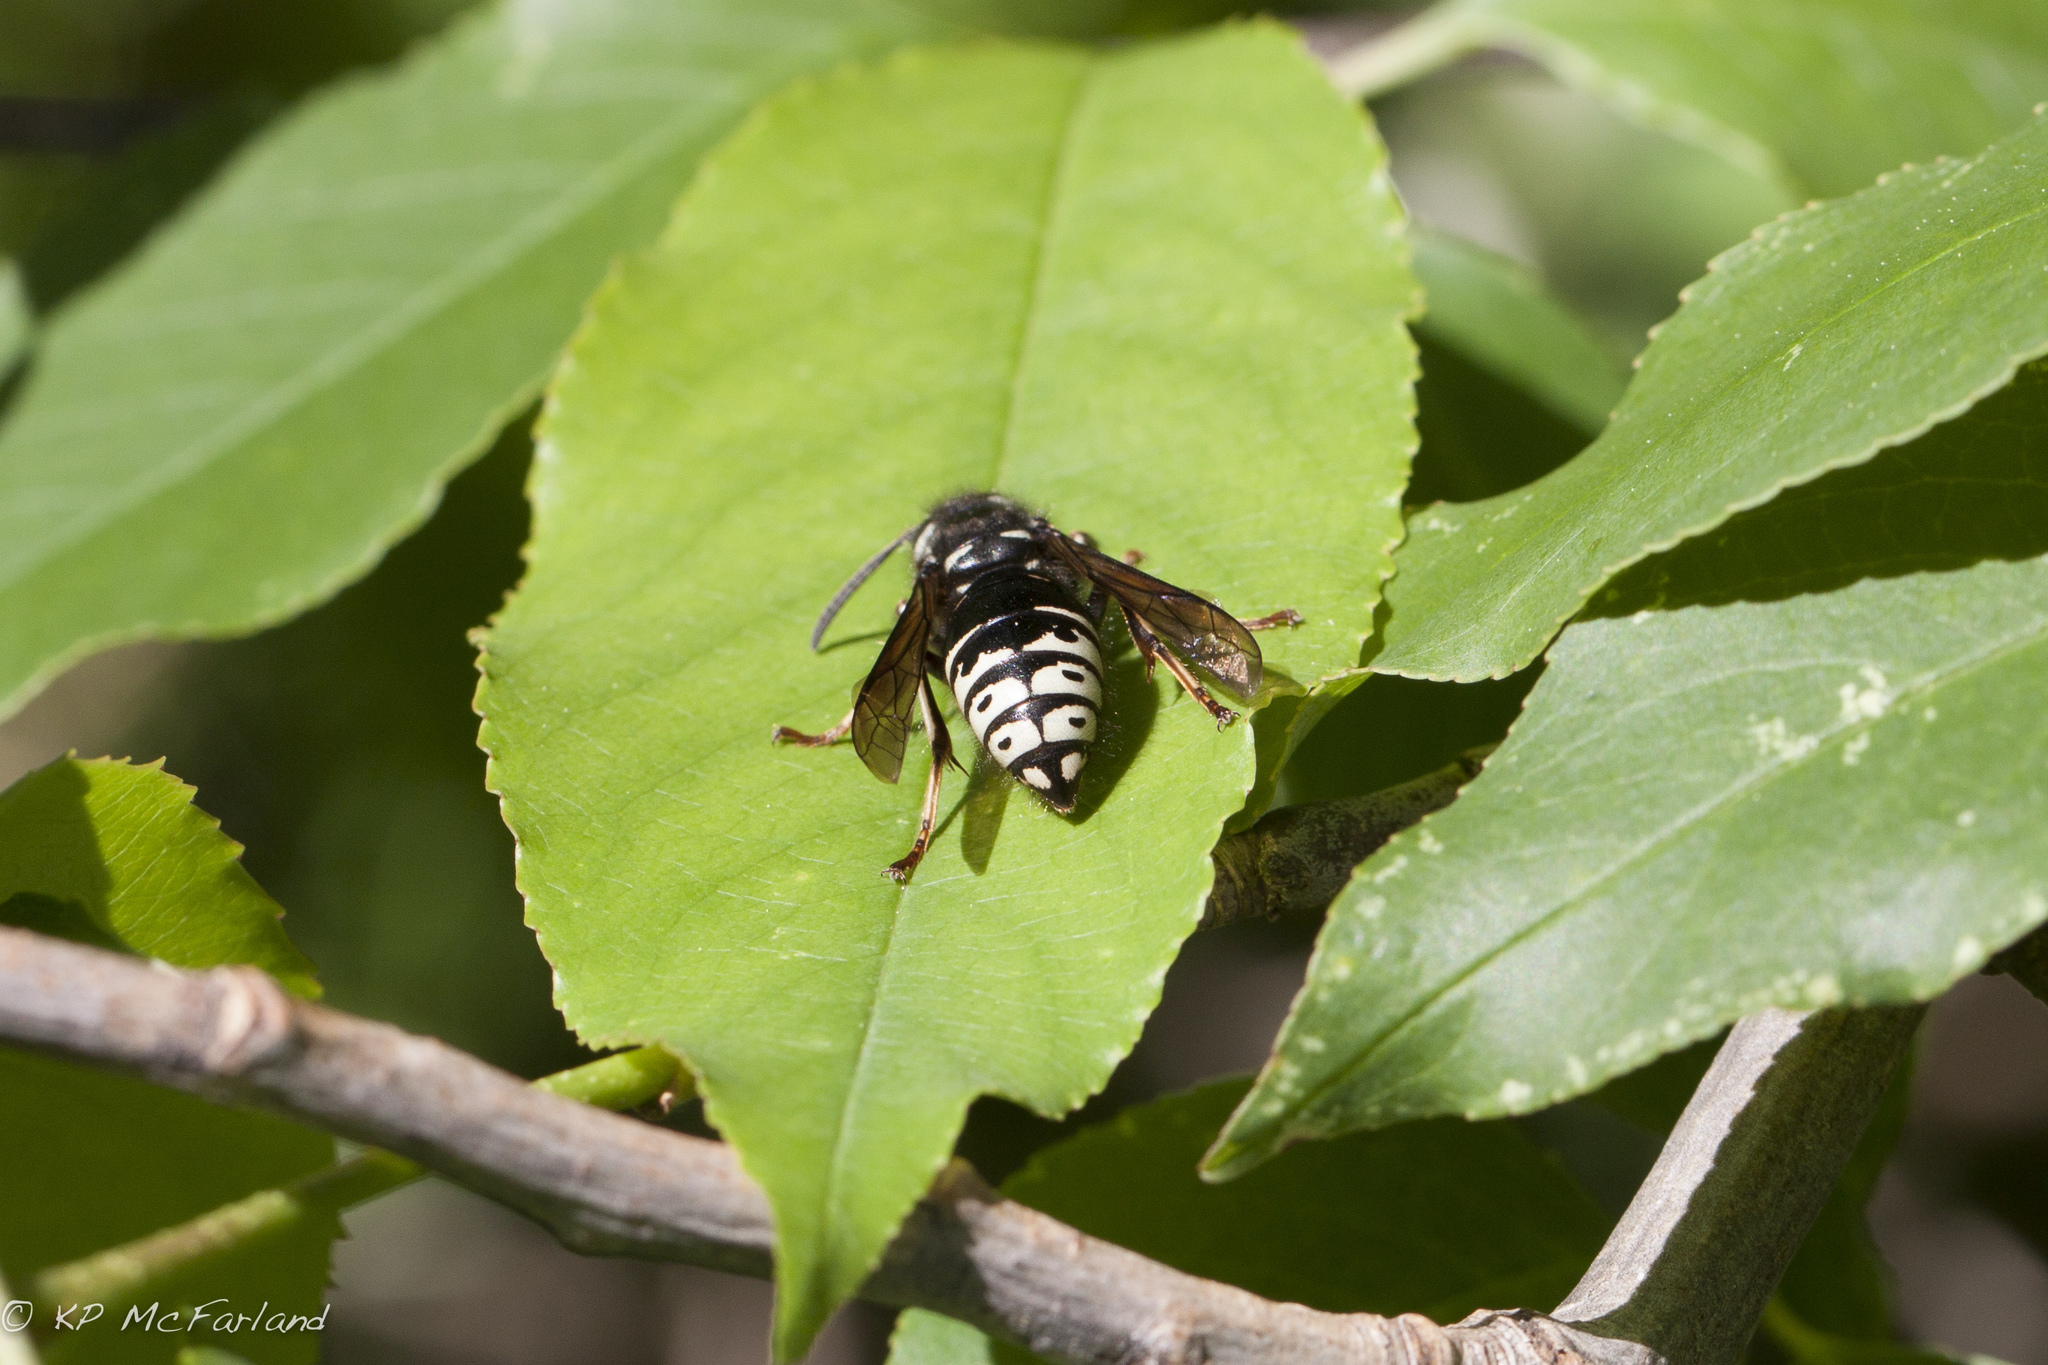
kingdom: Animalia
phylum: Arthropoda
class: Insecta
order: Hymenoptera
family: Vespidae
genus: Dolichovespula
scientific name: Dolichovespula adulterina
